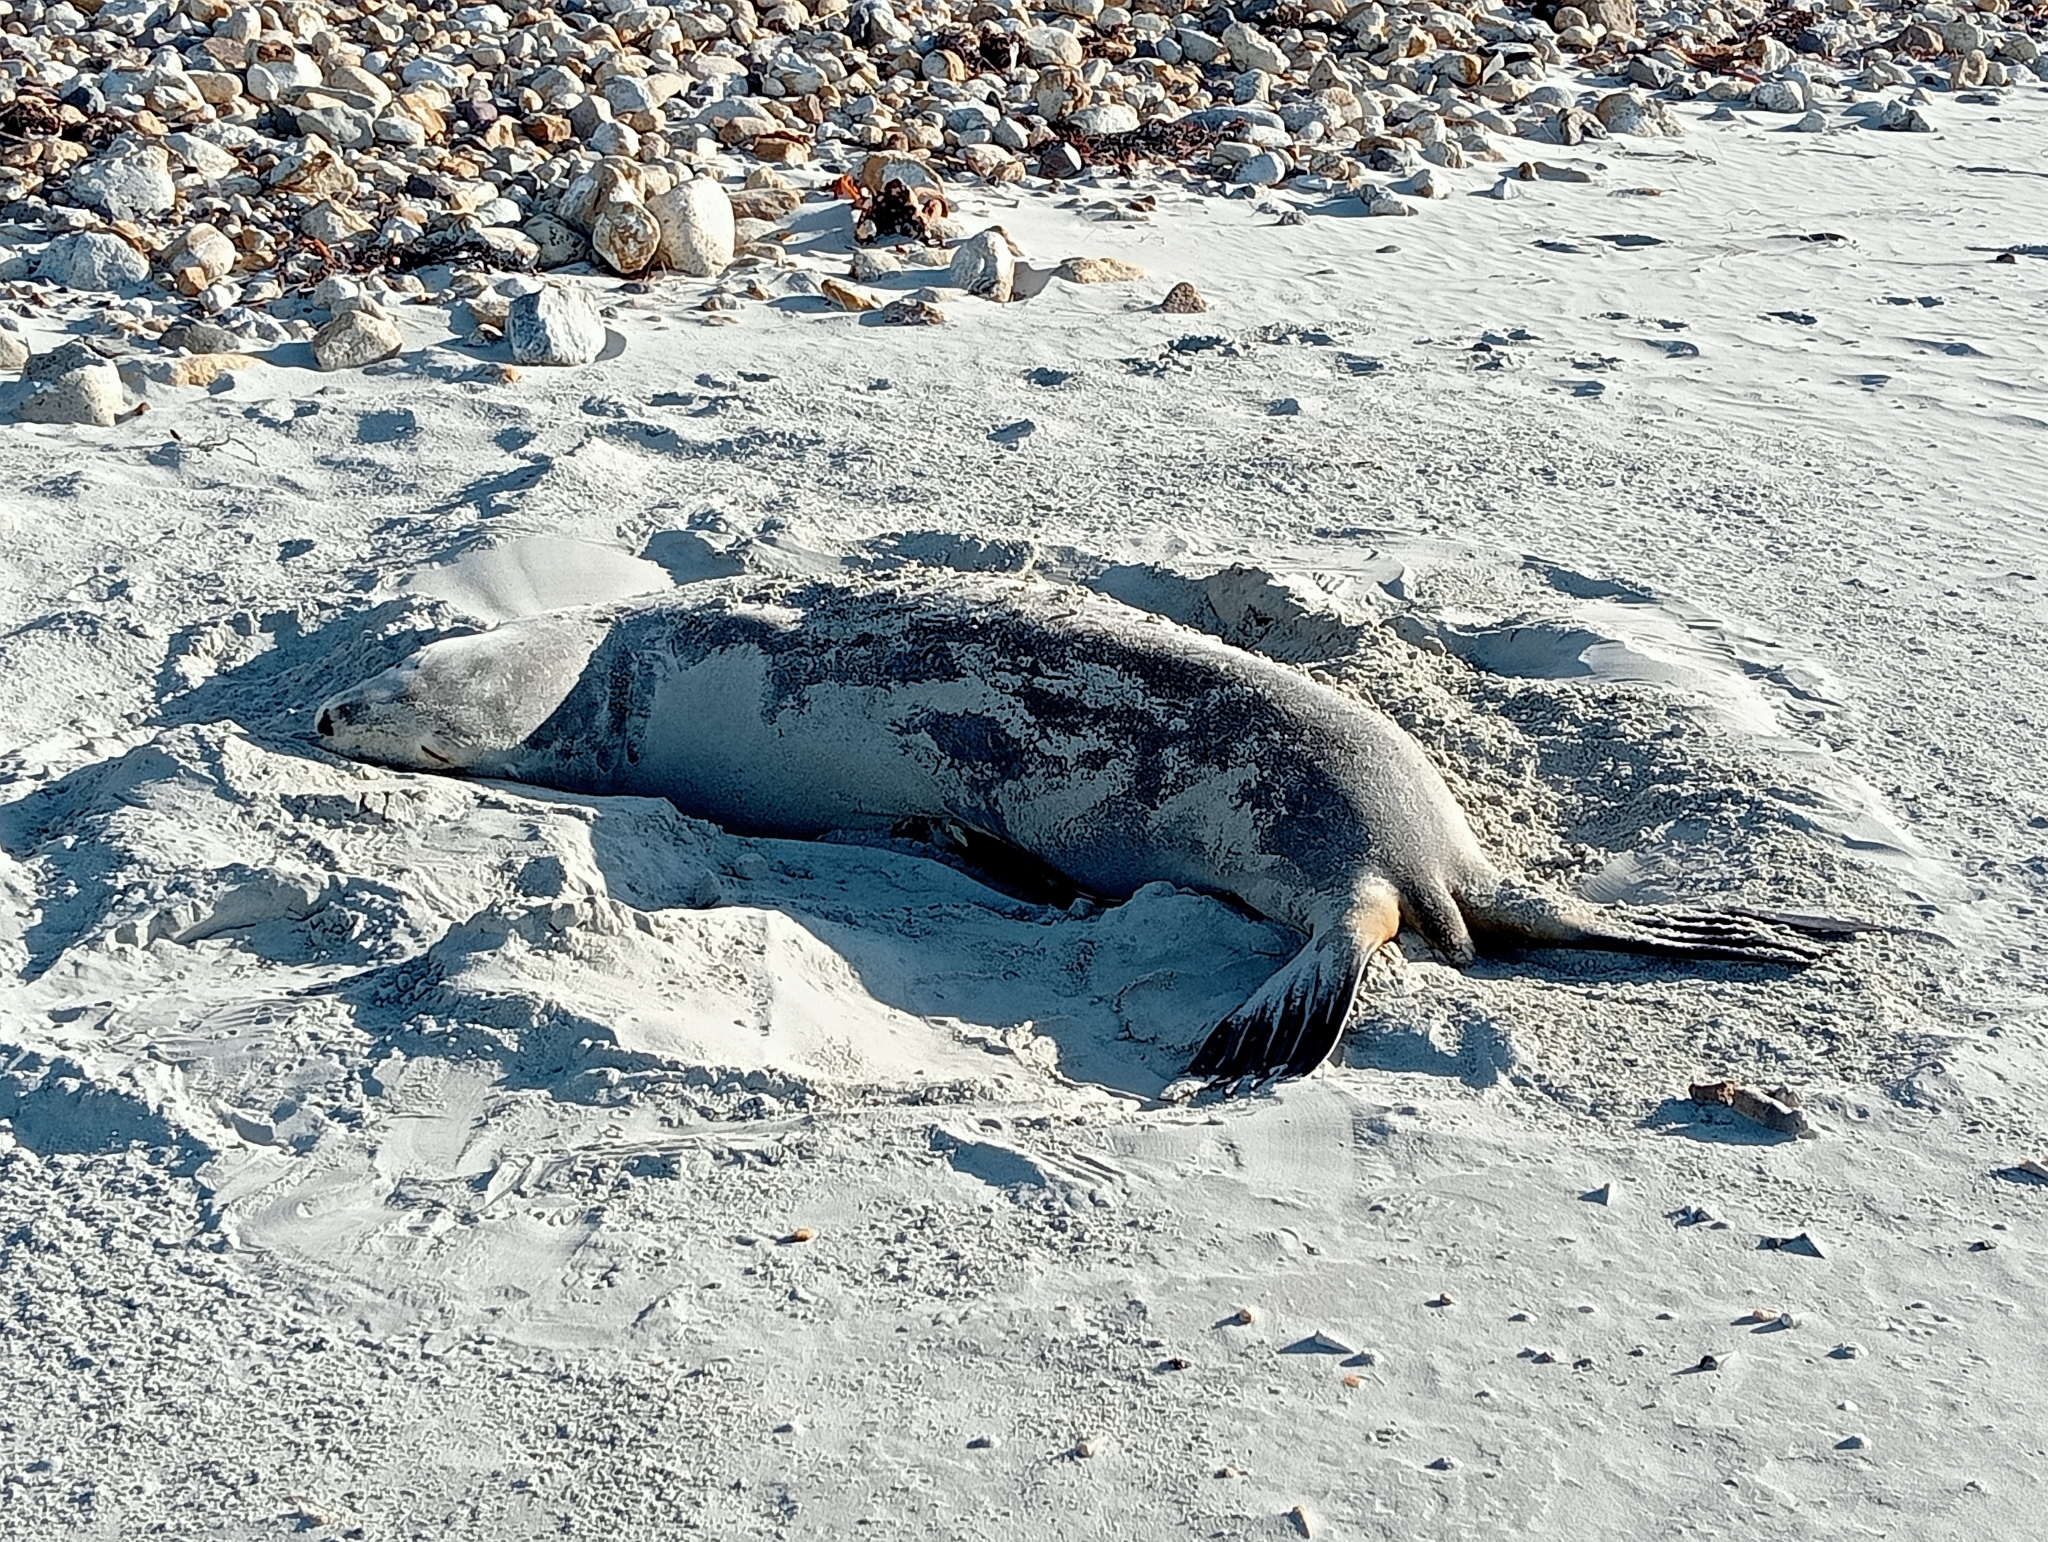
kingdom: Animalia
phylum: Chordata
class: Mammalia
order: Carnivora
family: Otariidae
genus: Phocarctos
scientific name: Phocarctos hookeri
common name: New zealand sea lion
